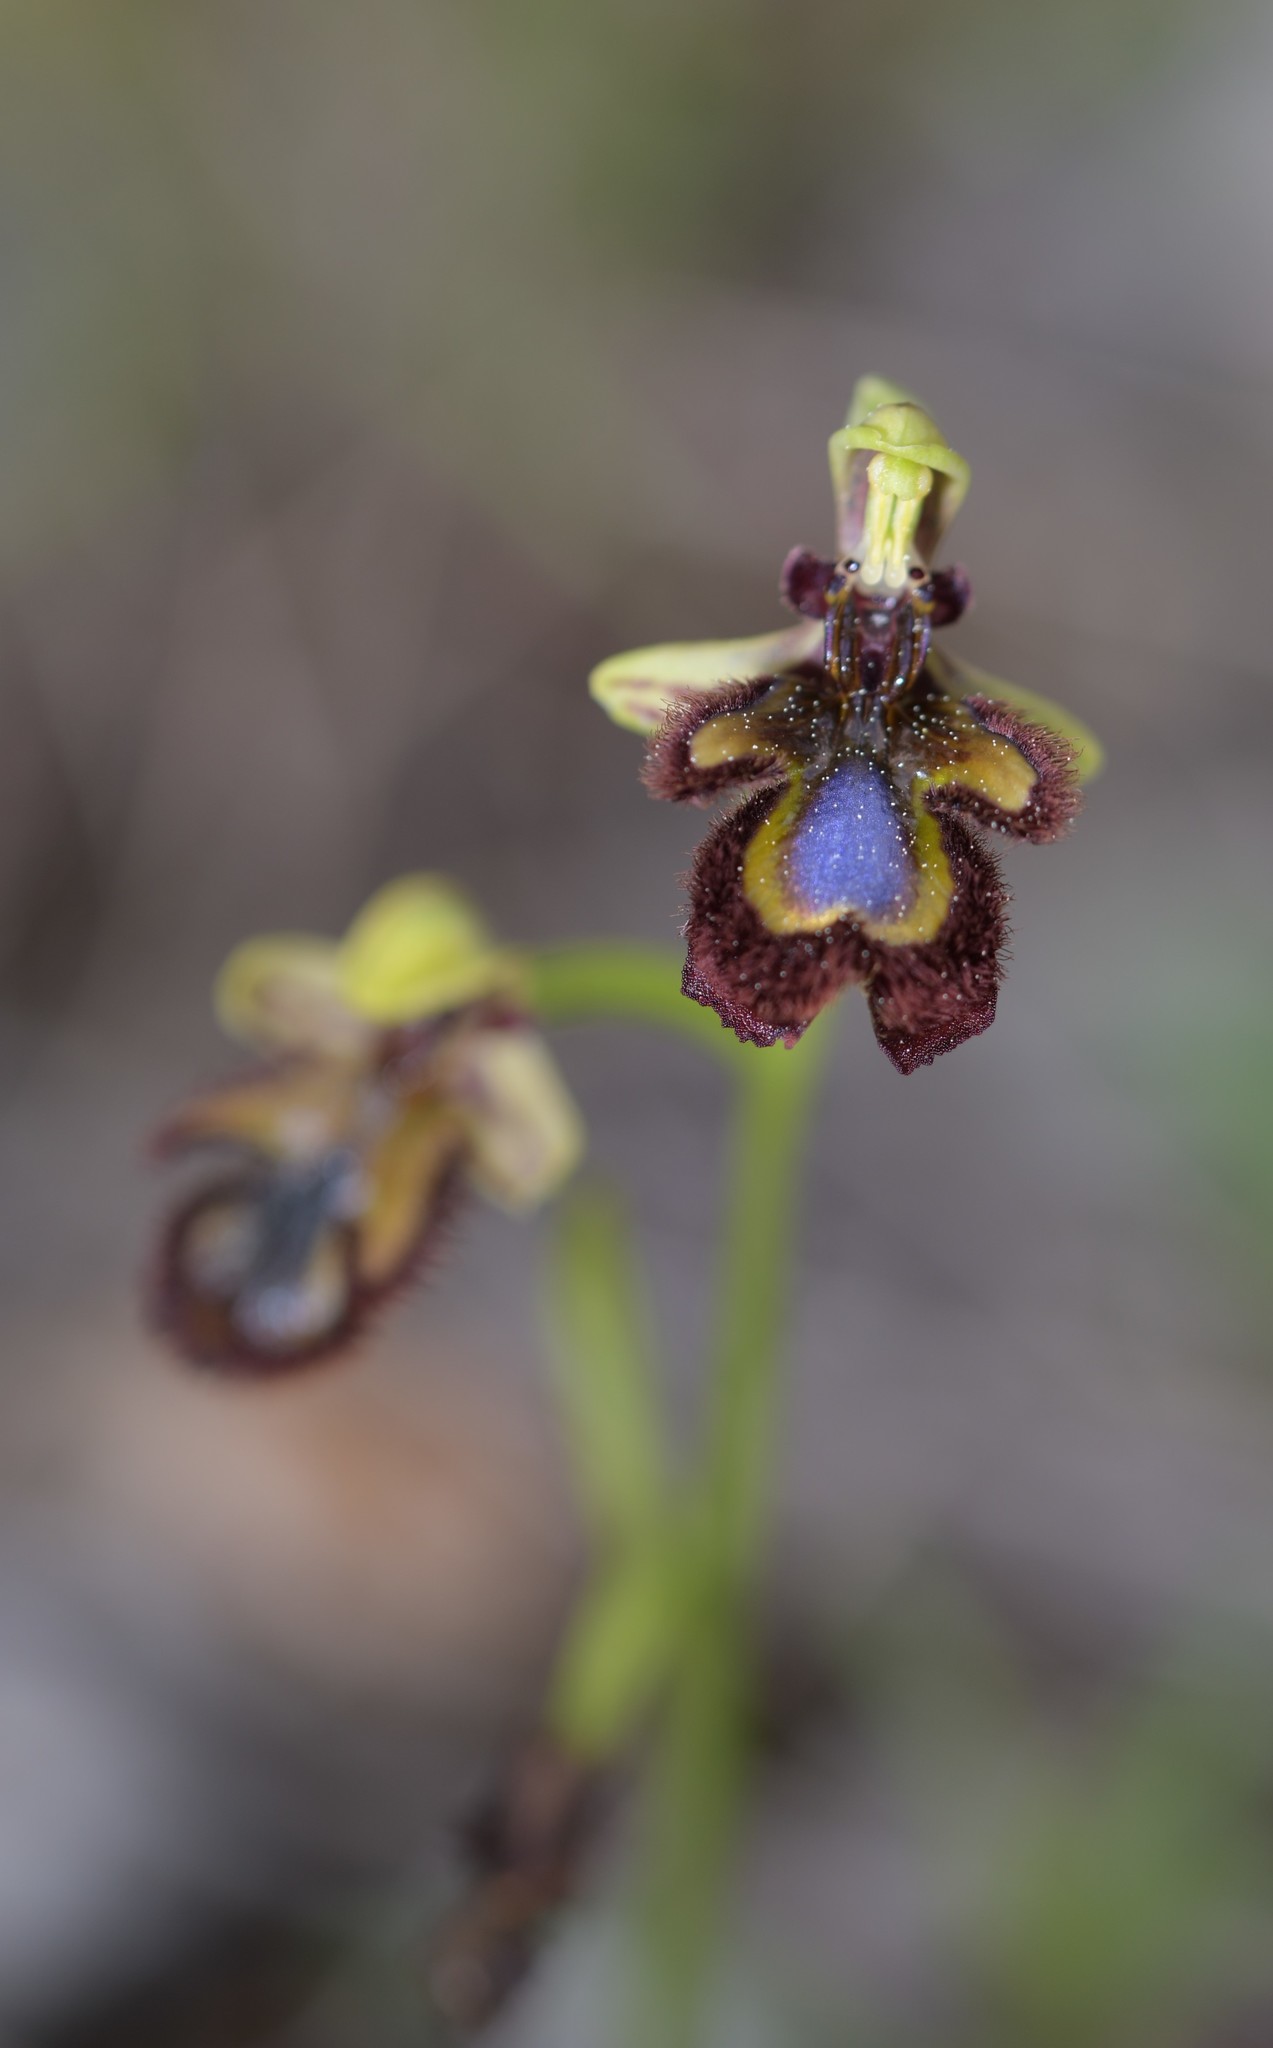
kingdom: Plantae
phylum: Tracheophyta
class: Liliopsida
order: Asparagales
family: Orchidaceae
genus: Ophrys
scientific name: Ophrys speculum
